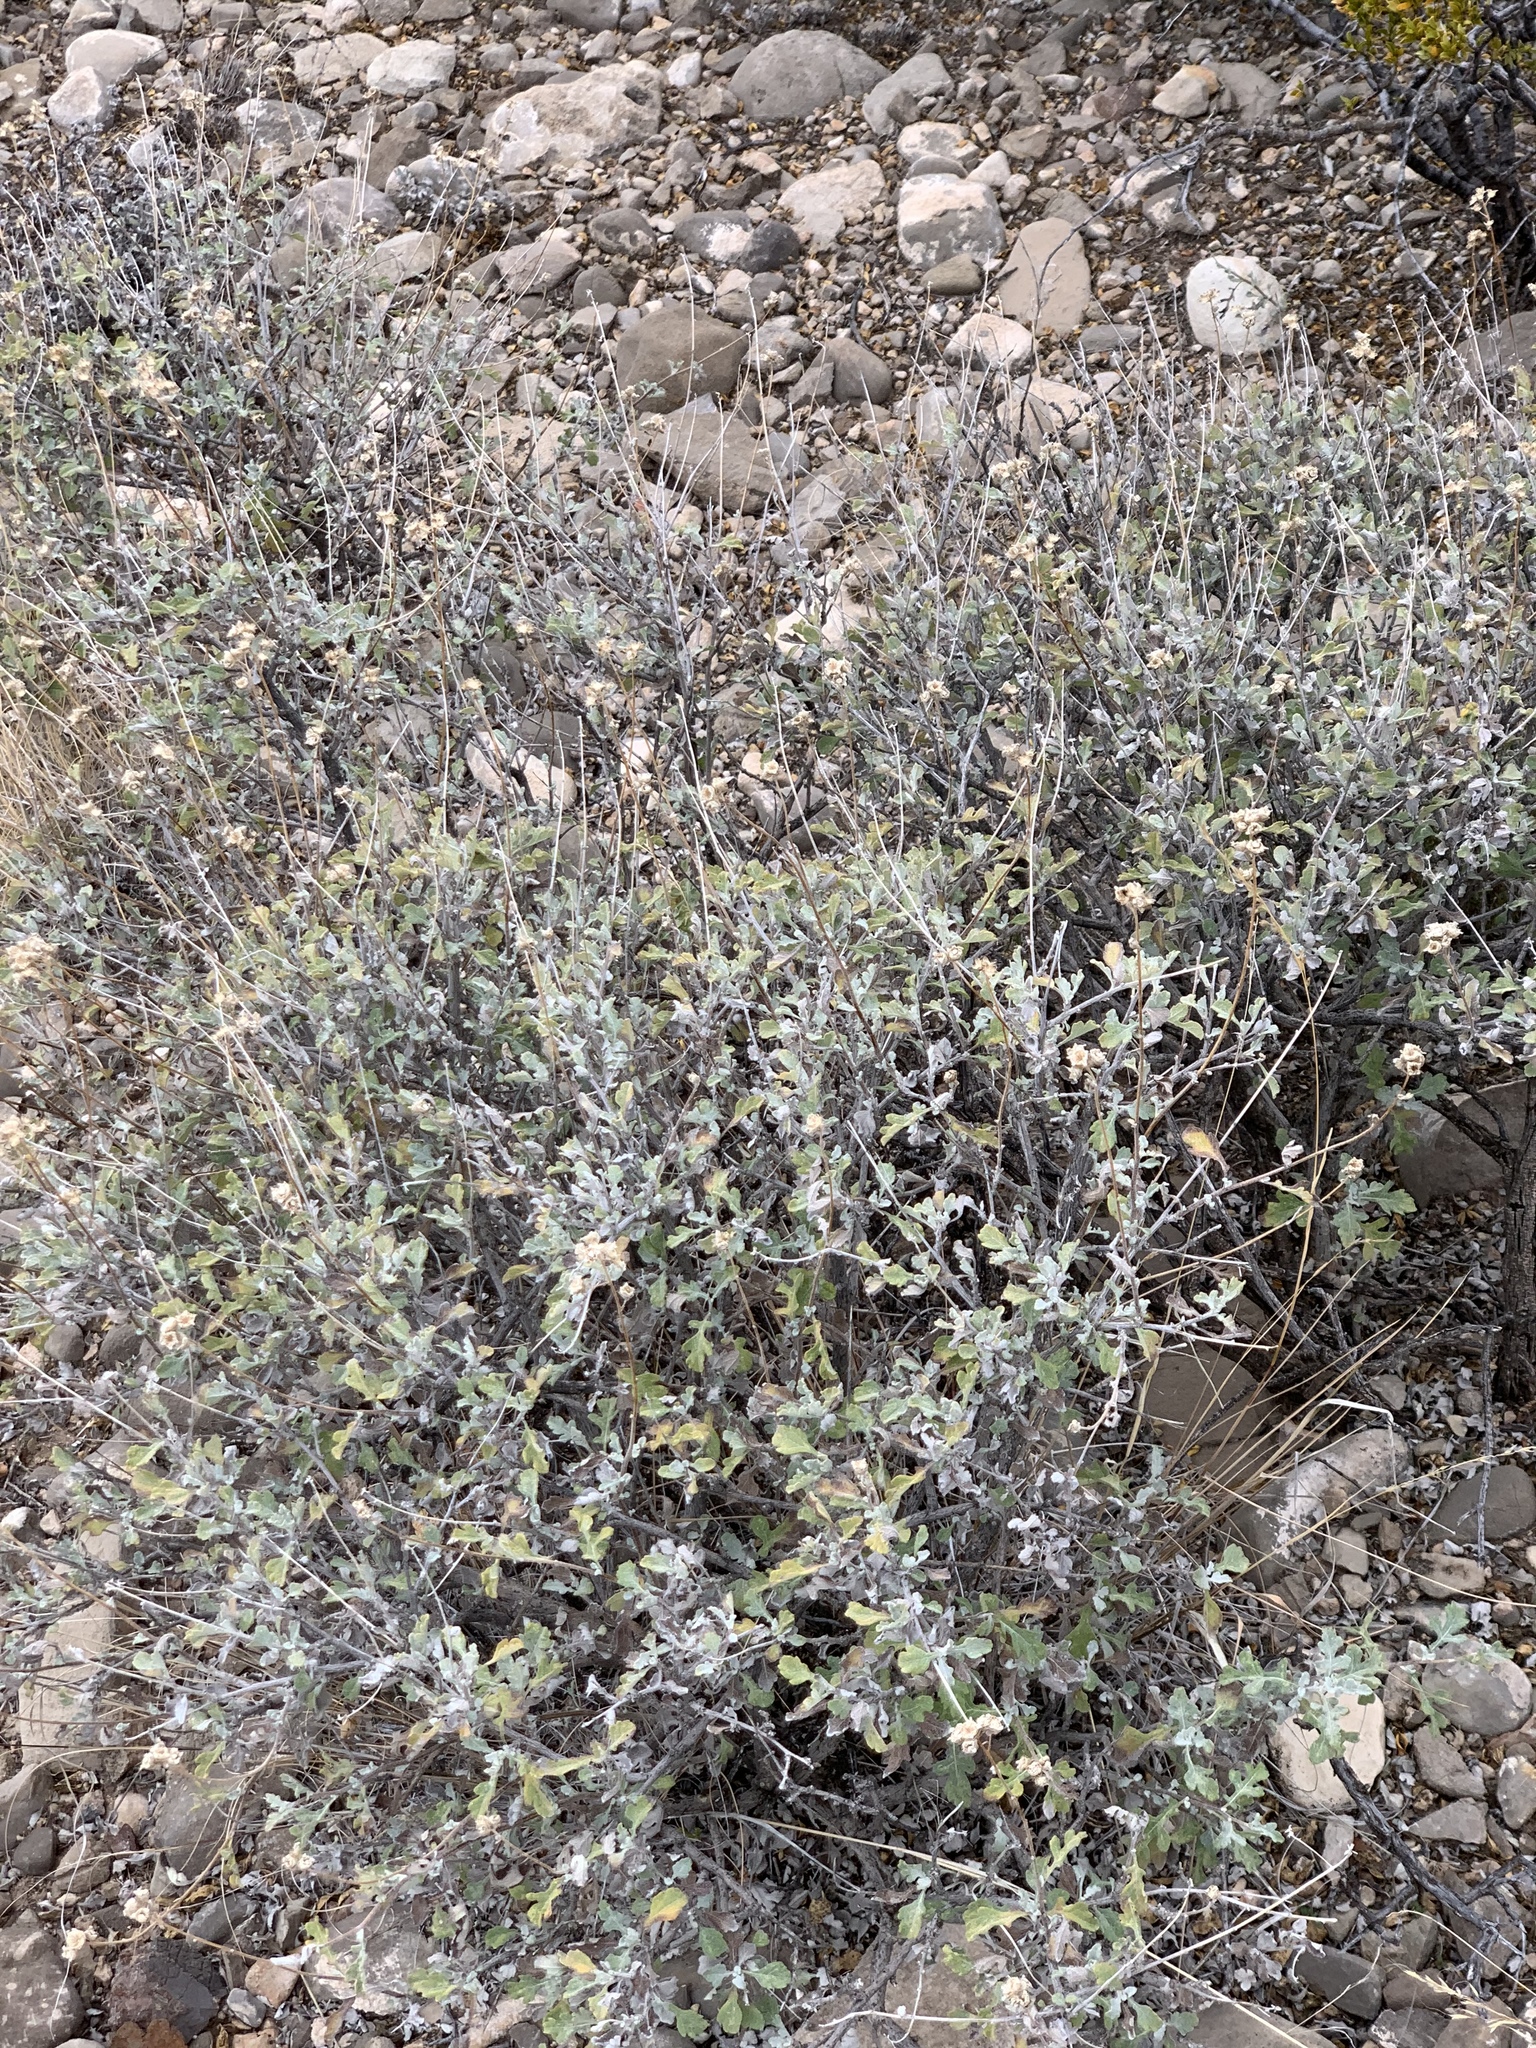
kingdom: Plantae
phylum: Tracheophyta
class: Magnoliopsida
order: Asterales
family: Asteraceae
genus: Parthenium
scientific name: Parthenium incanum
